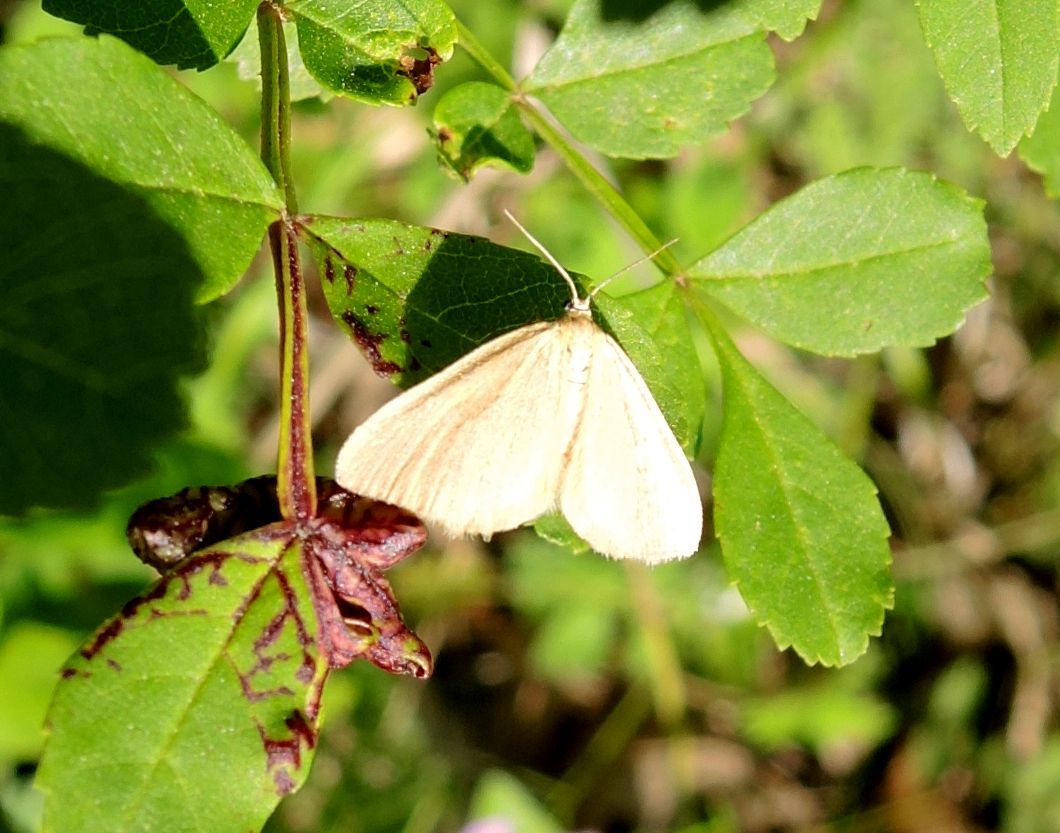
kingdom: Animalia
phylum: Arthropoda
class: Insecta
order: Lepidoptera
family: Geometridae
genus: Minoa
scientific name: Minoa murinata
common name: Drab looper
